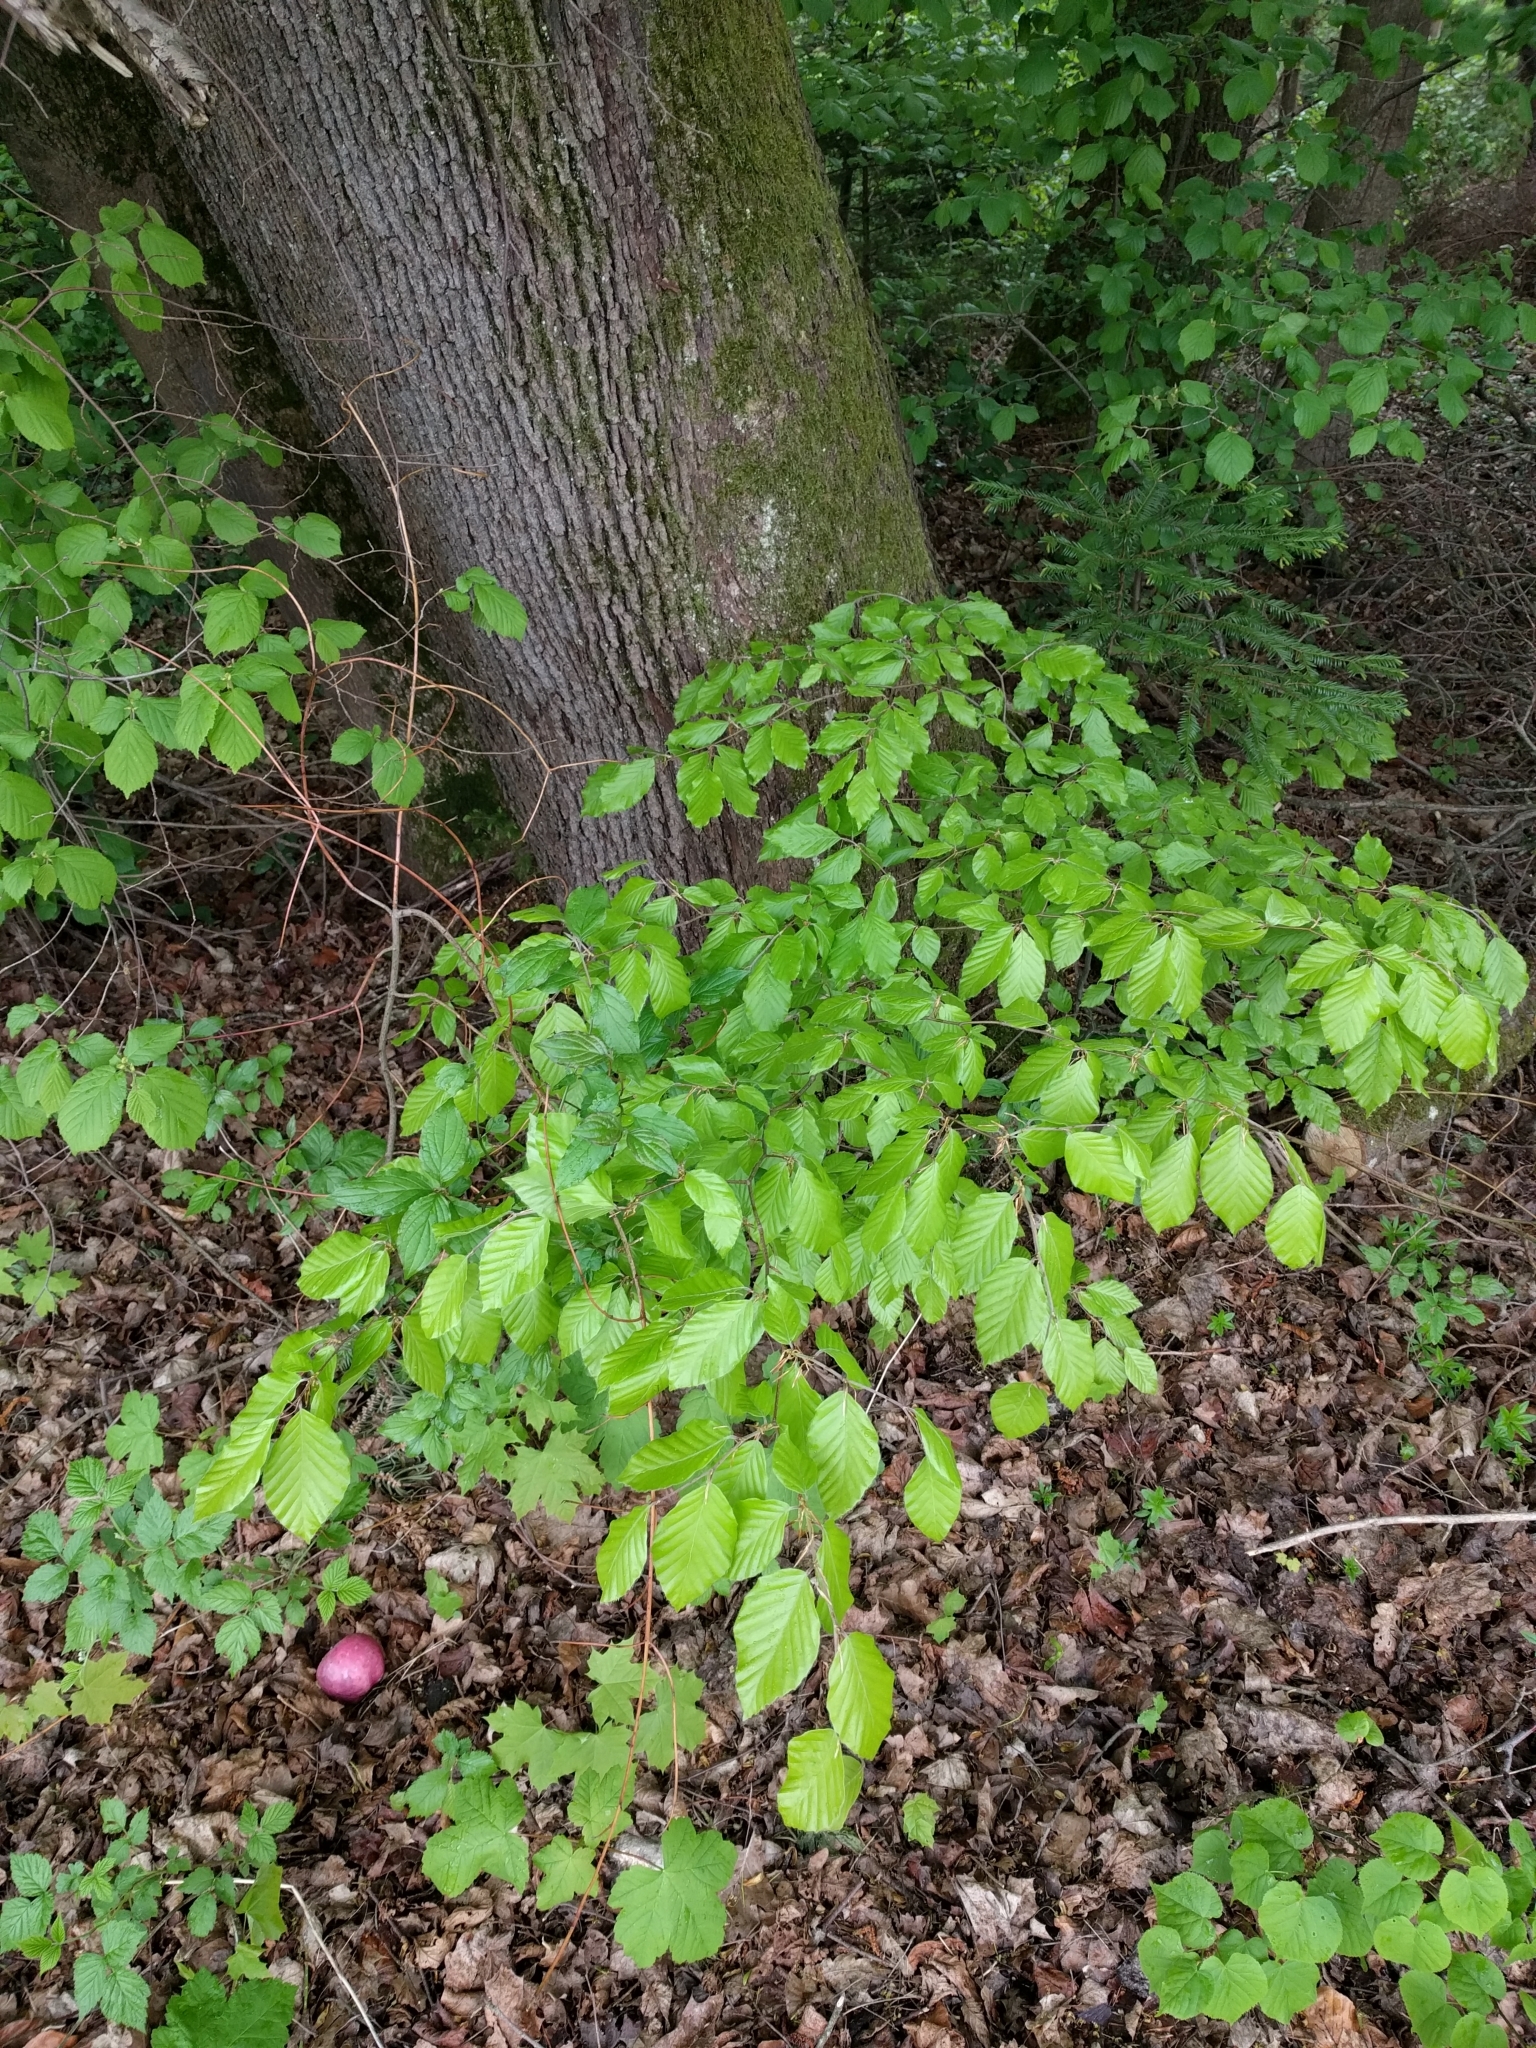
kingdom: Plantae
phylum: Tracheophyta
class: Magnoliopsida
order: Fagales
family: Fagaceae
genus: Fagus
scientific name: Fagus sylvatica
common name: Beech
